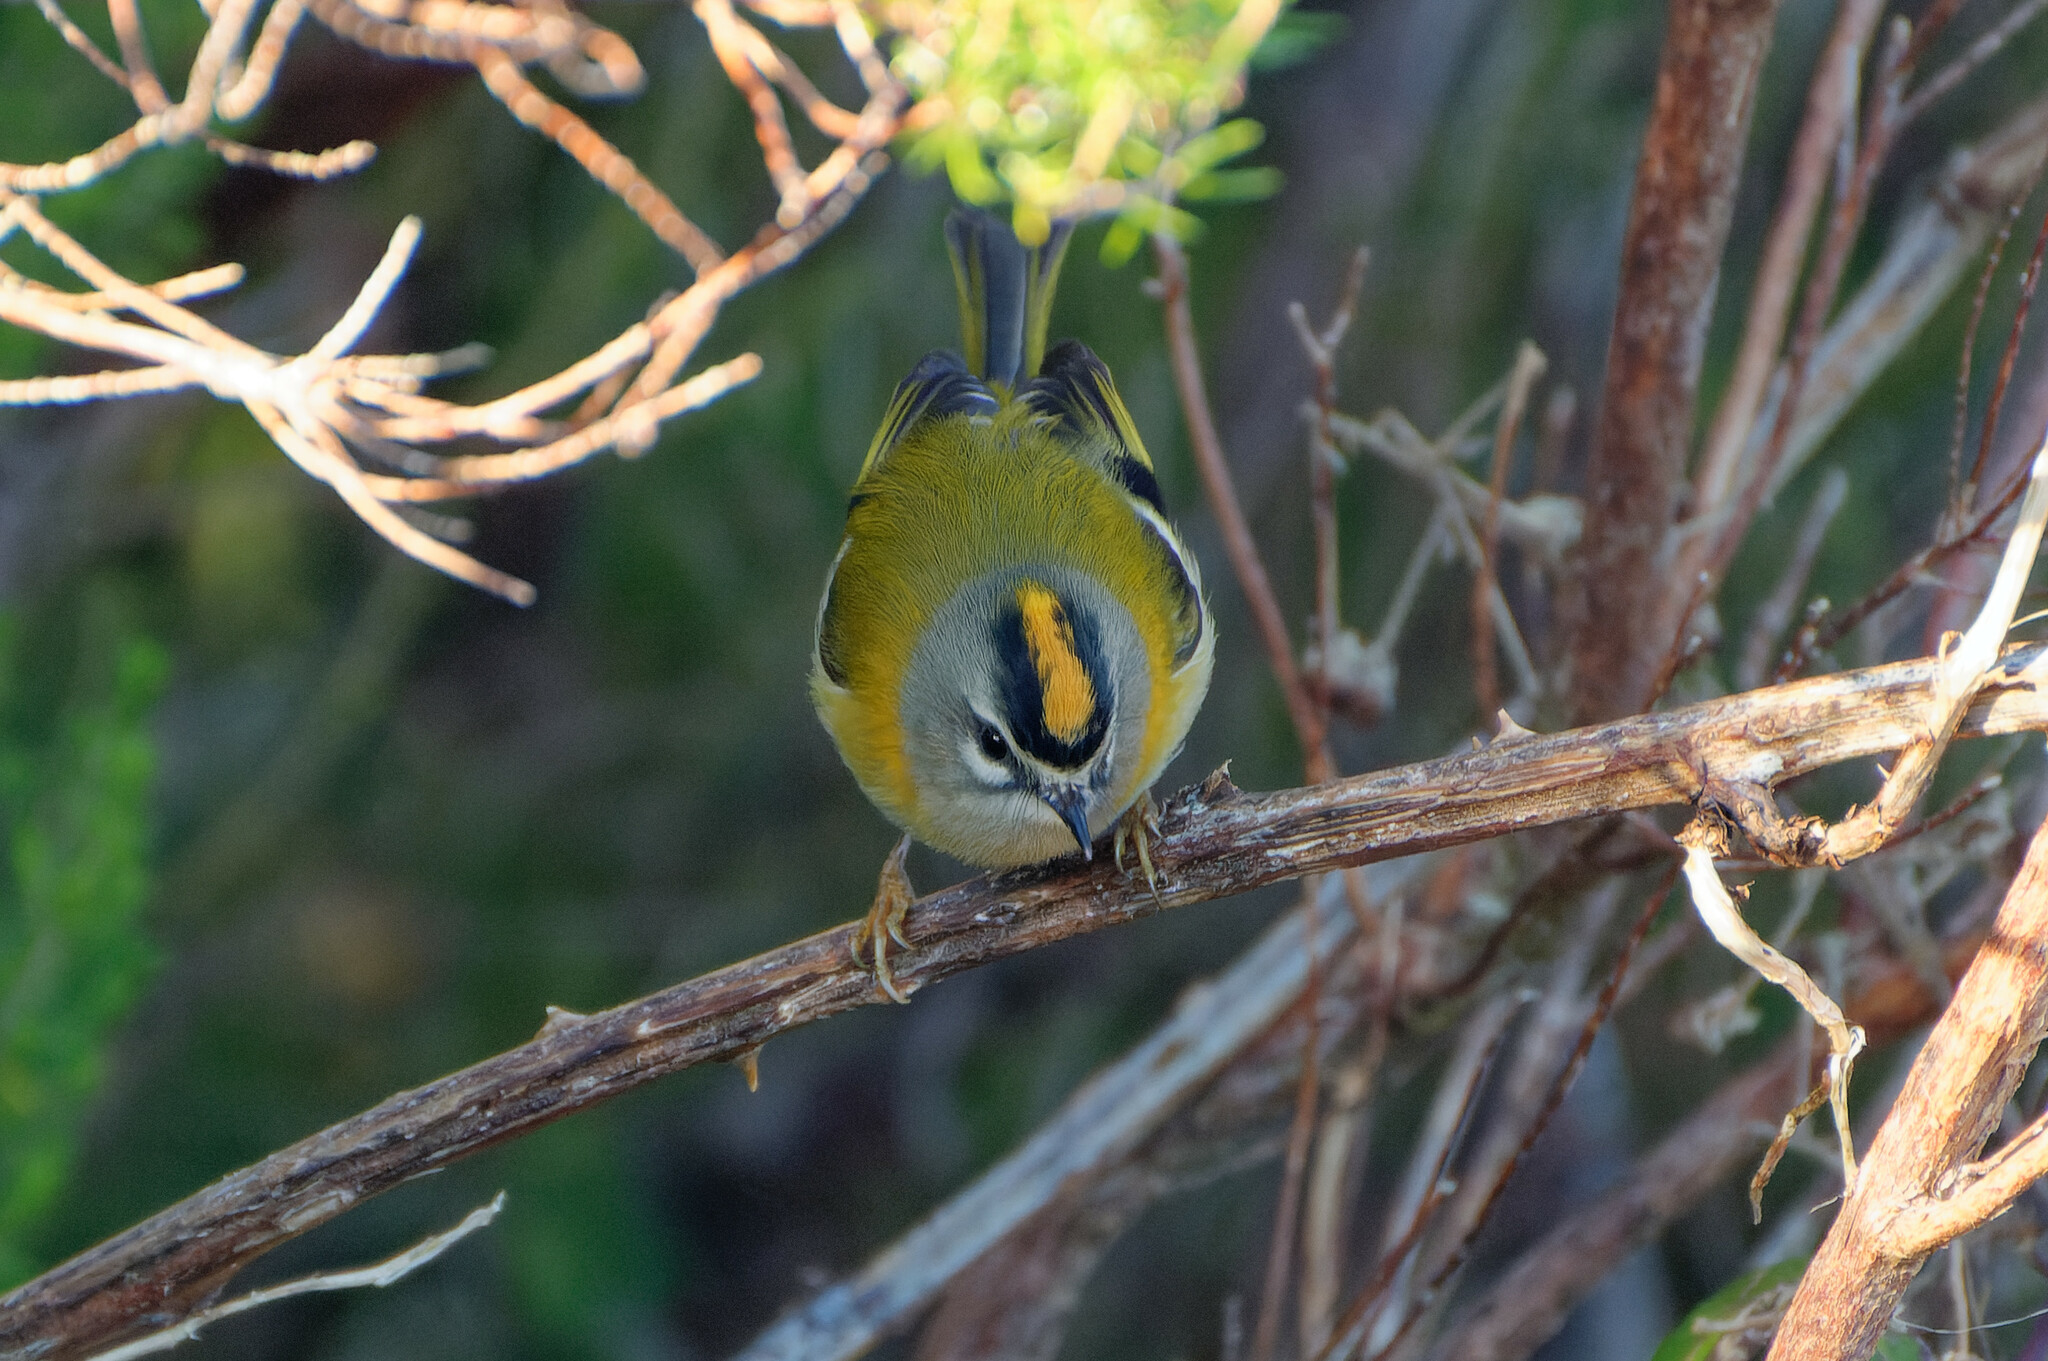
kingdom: Animalia
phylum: Chordata
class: Aves
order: Passeriformes
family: Regulidae
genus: Regulus
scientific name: Regulus madeirensis
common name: Madeira firecrest
